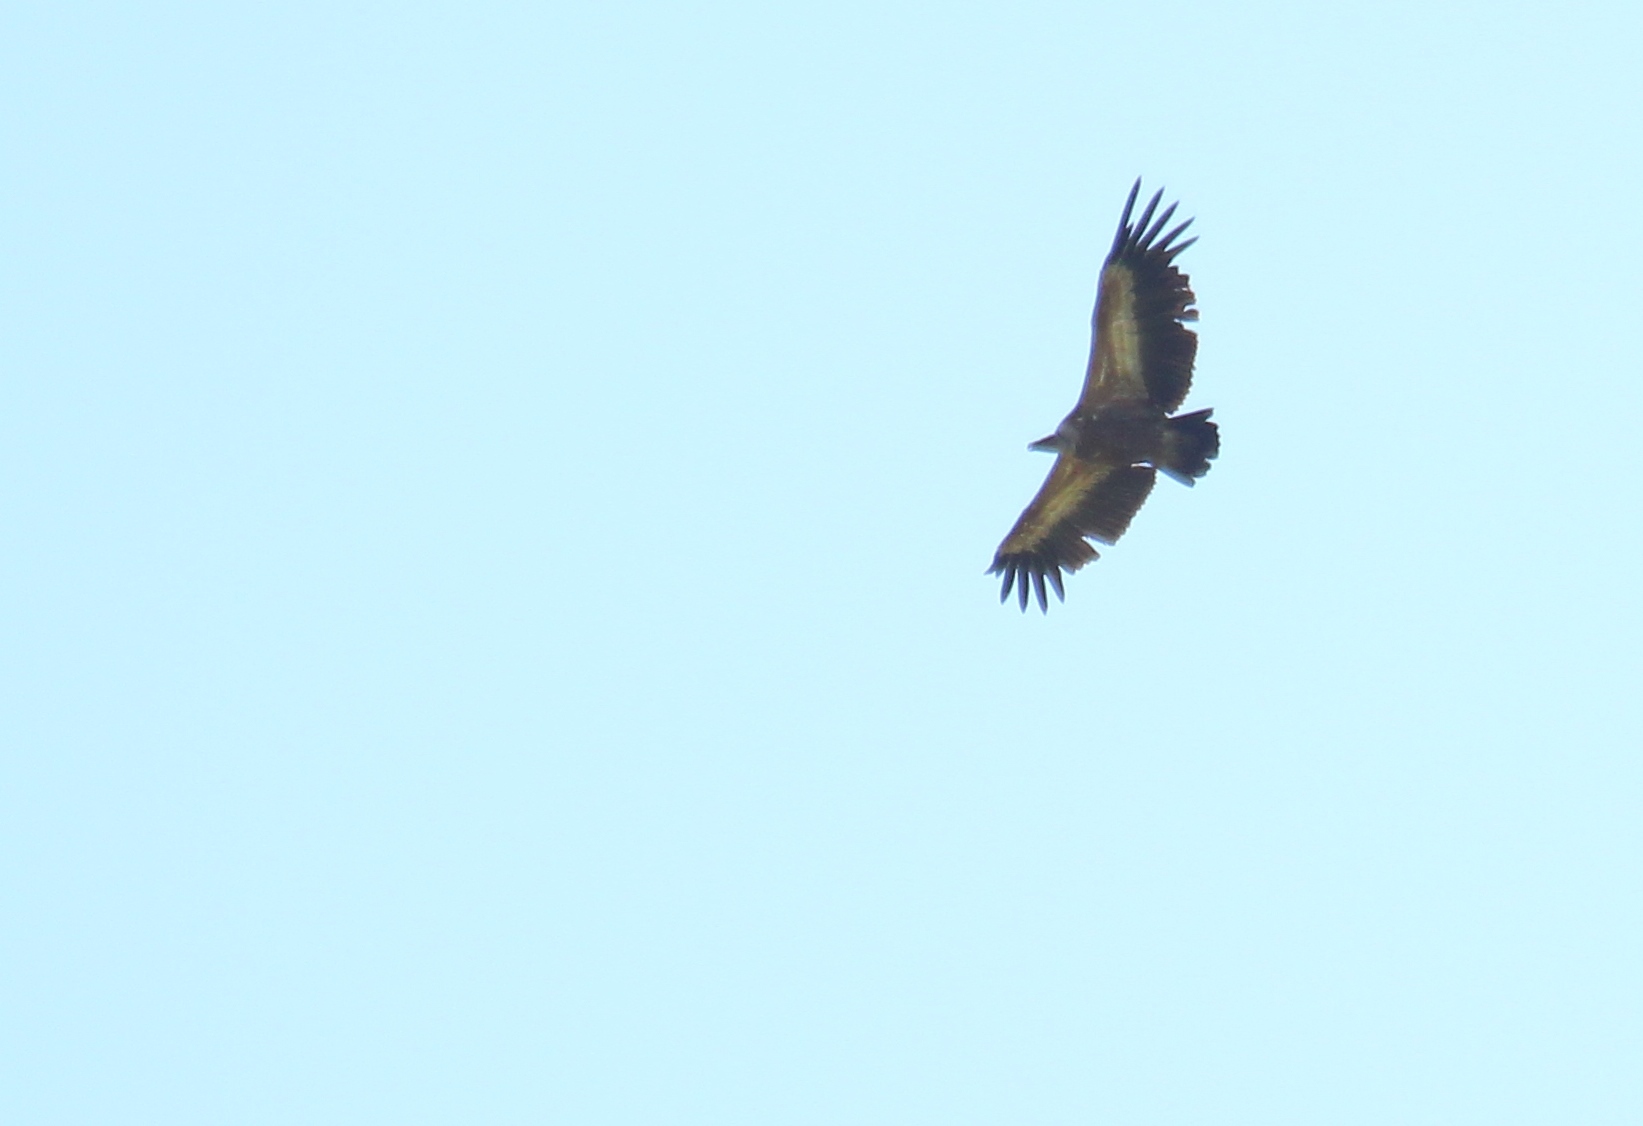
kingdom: Animalia
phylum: Chordata
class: Aves
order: Accipitriformes
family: Accipitridae
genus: Gyps
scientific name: Gyps fulvus
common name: Griffon vulture
